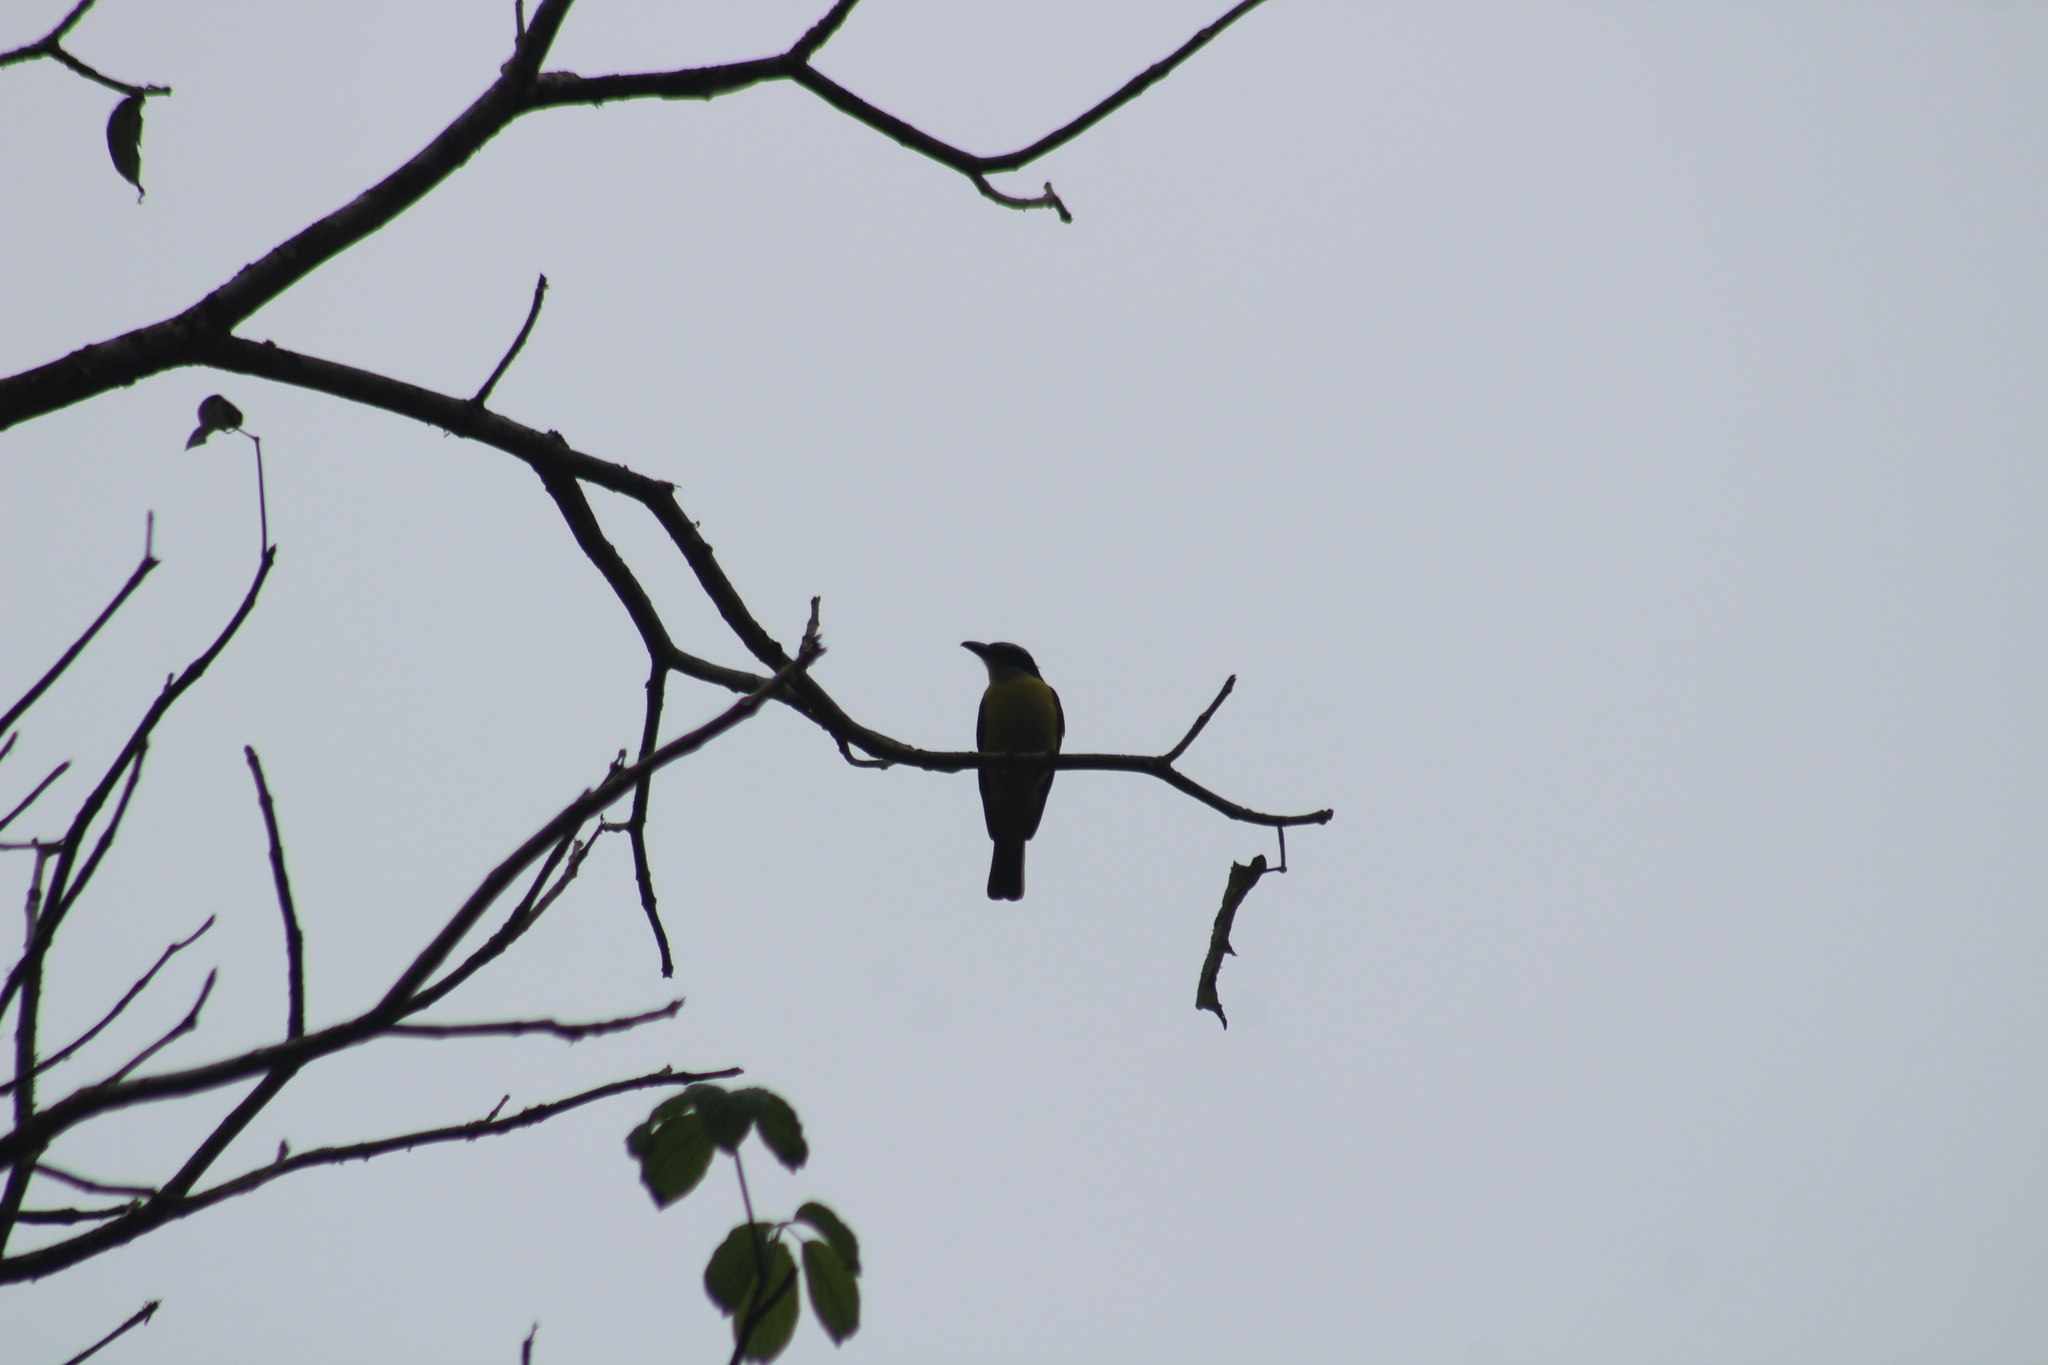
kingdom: Animalia
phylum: Chordata
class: Aves
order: Passeriformes
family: Tyrannidae
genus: Megarynchus
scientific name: Megarynchus pitangua
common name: Boat-billed flycatcher
